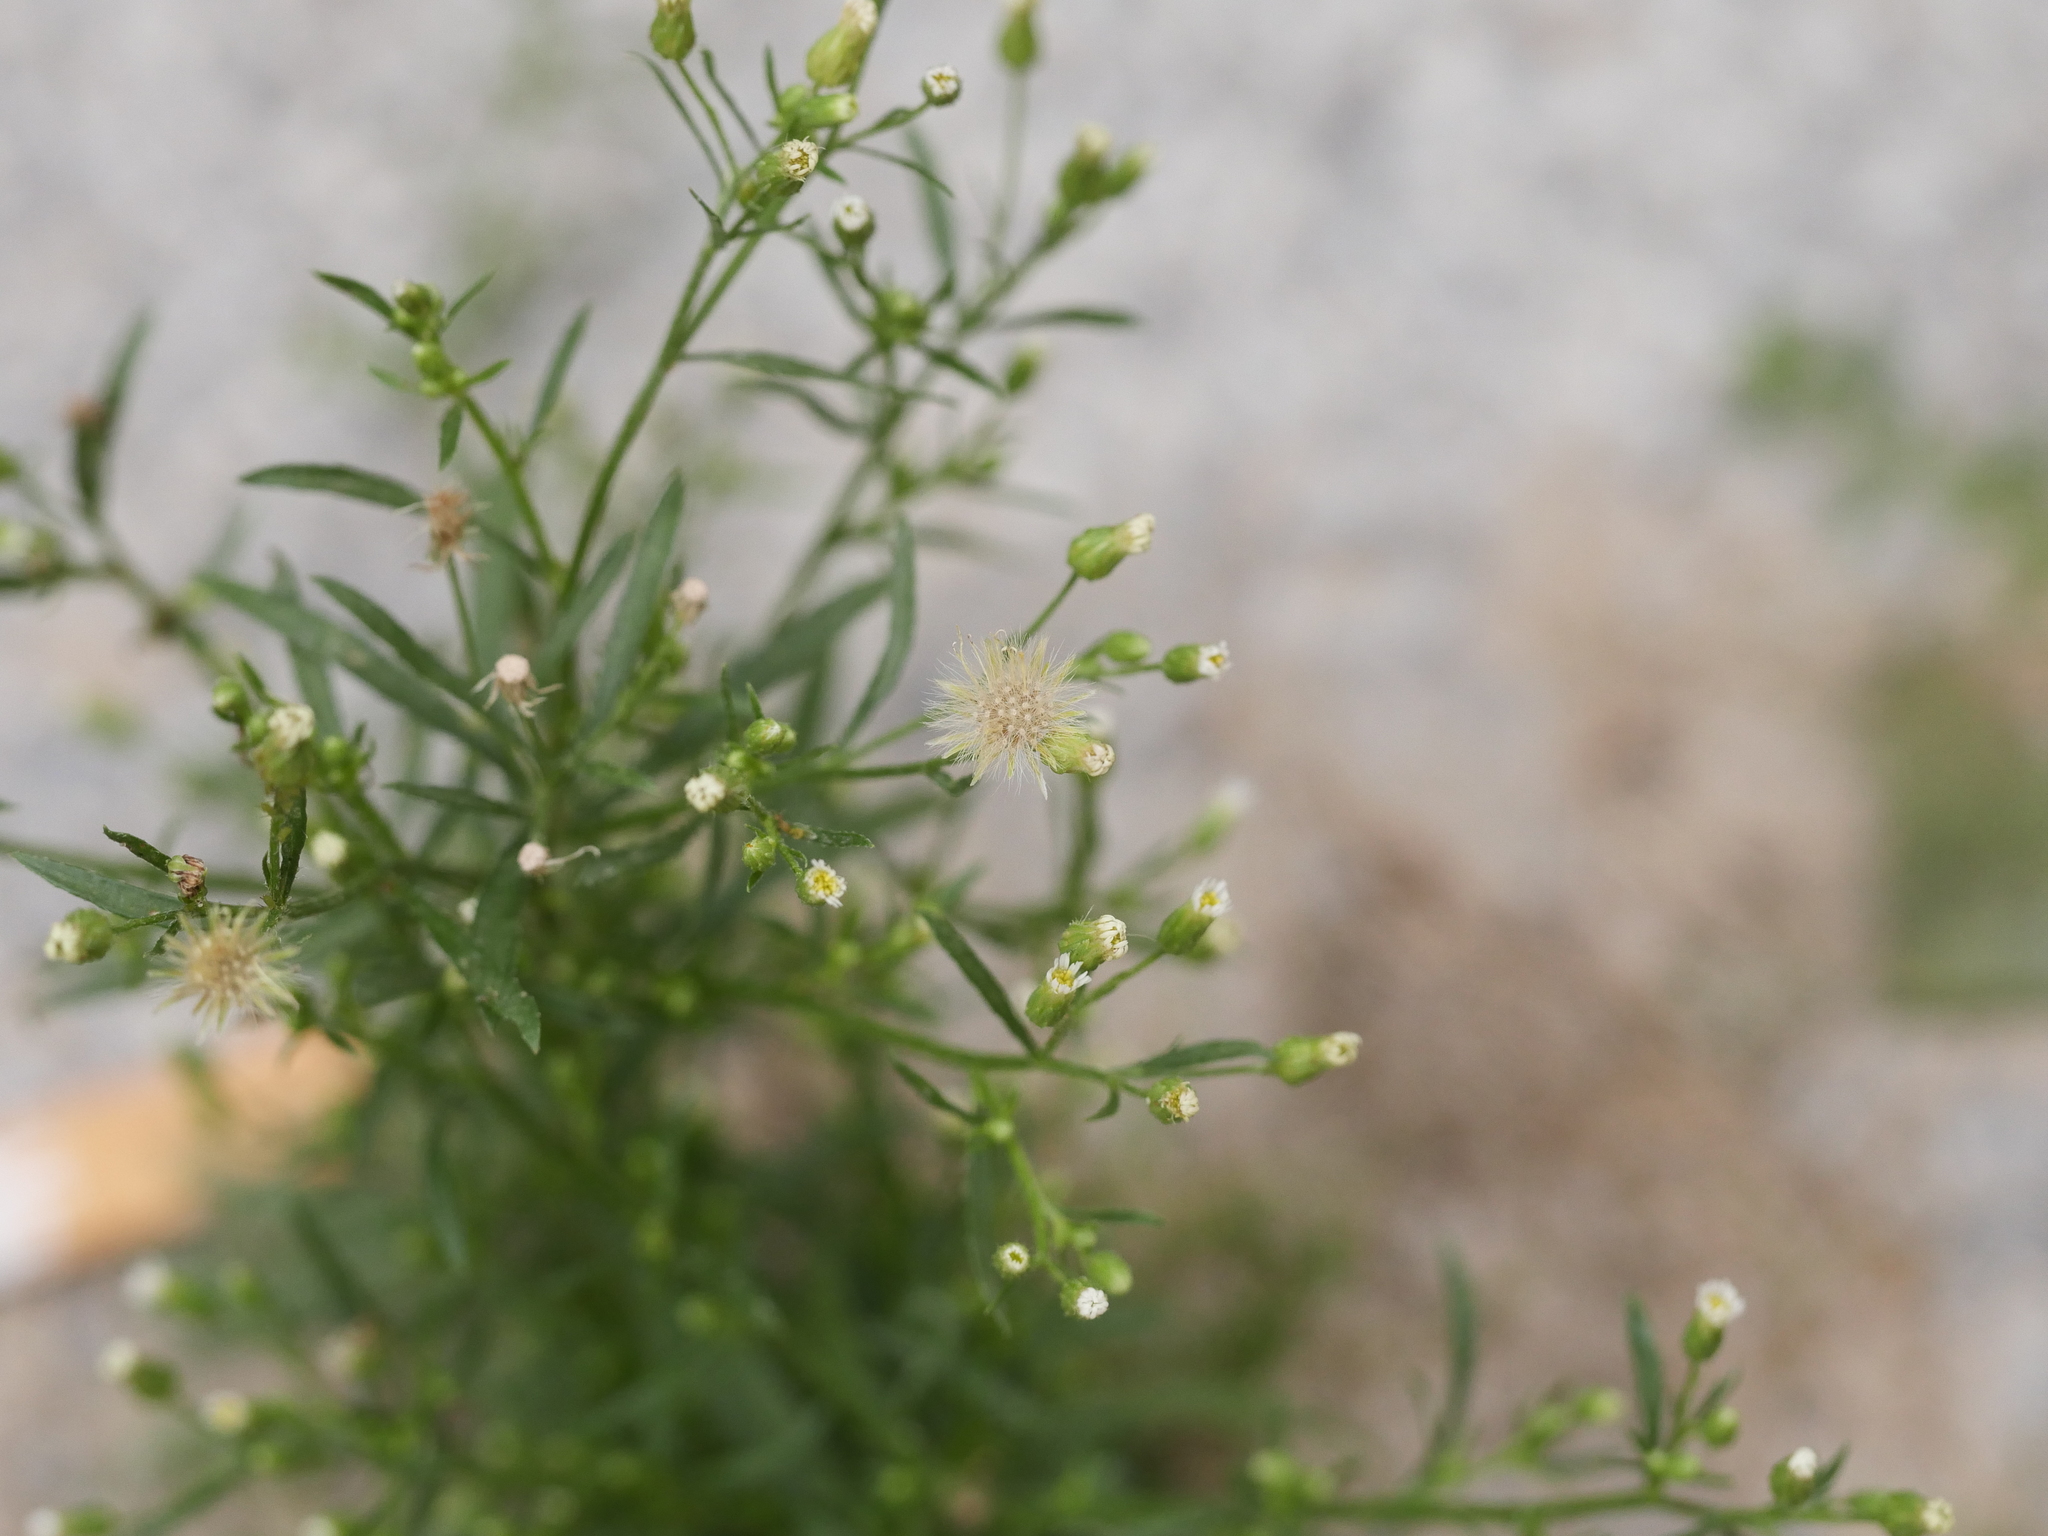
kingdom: Plantae
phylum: Tracheophyta
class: Magnoliopsida
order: Asterales
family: Asteraceae
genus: Erigeron
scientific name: Erigeron canadensis
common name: Canadian fleabane
